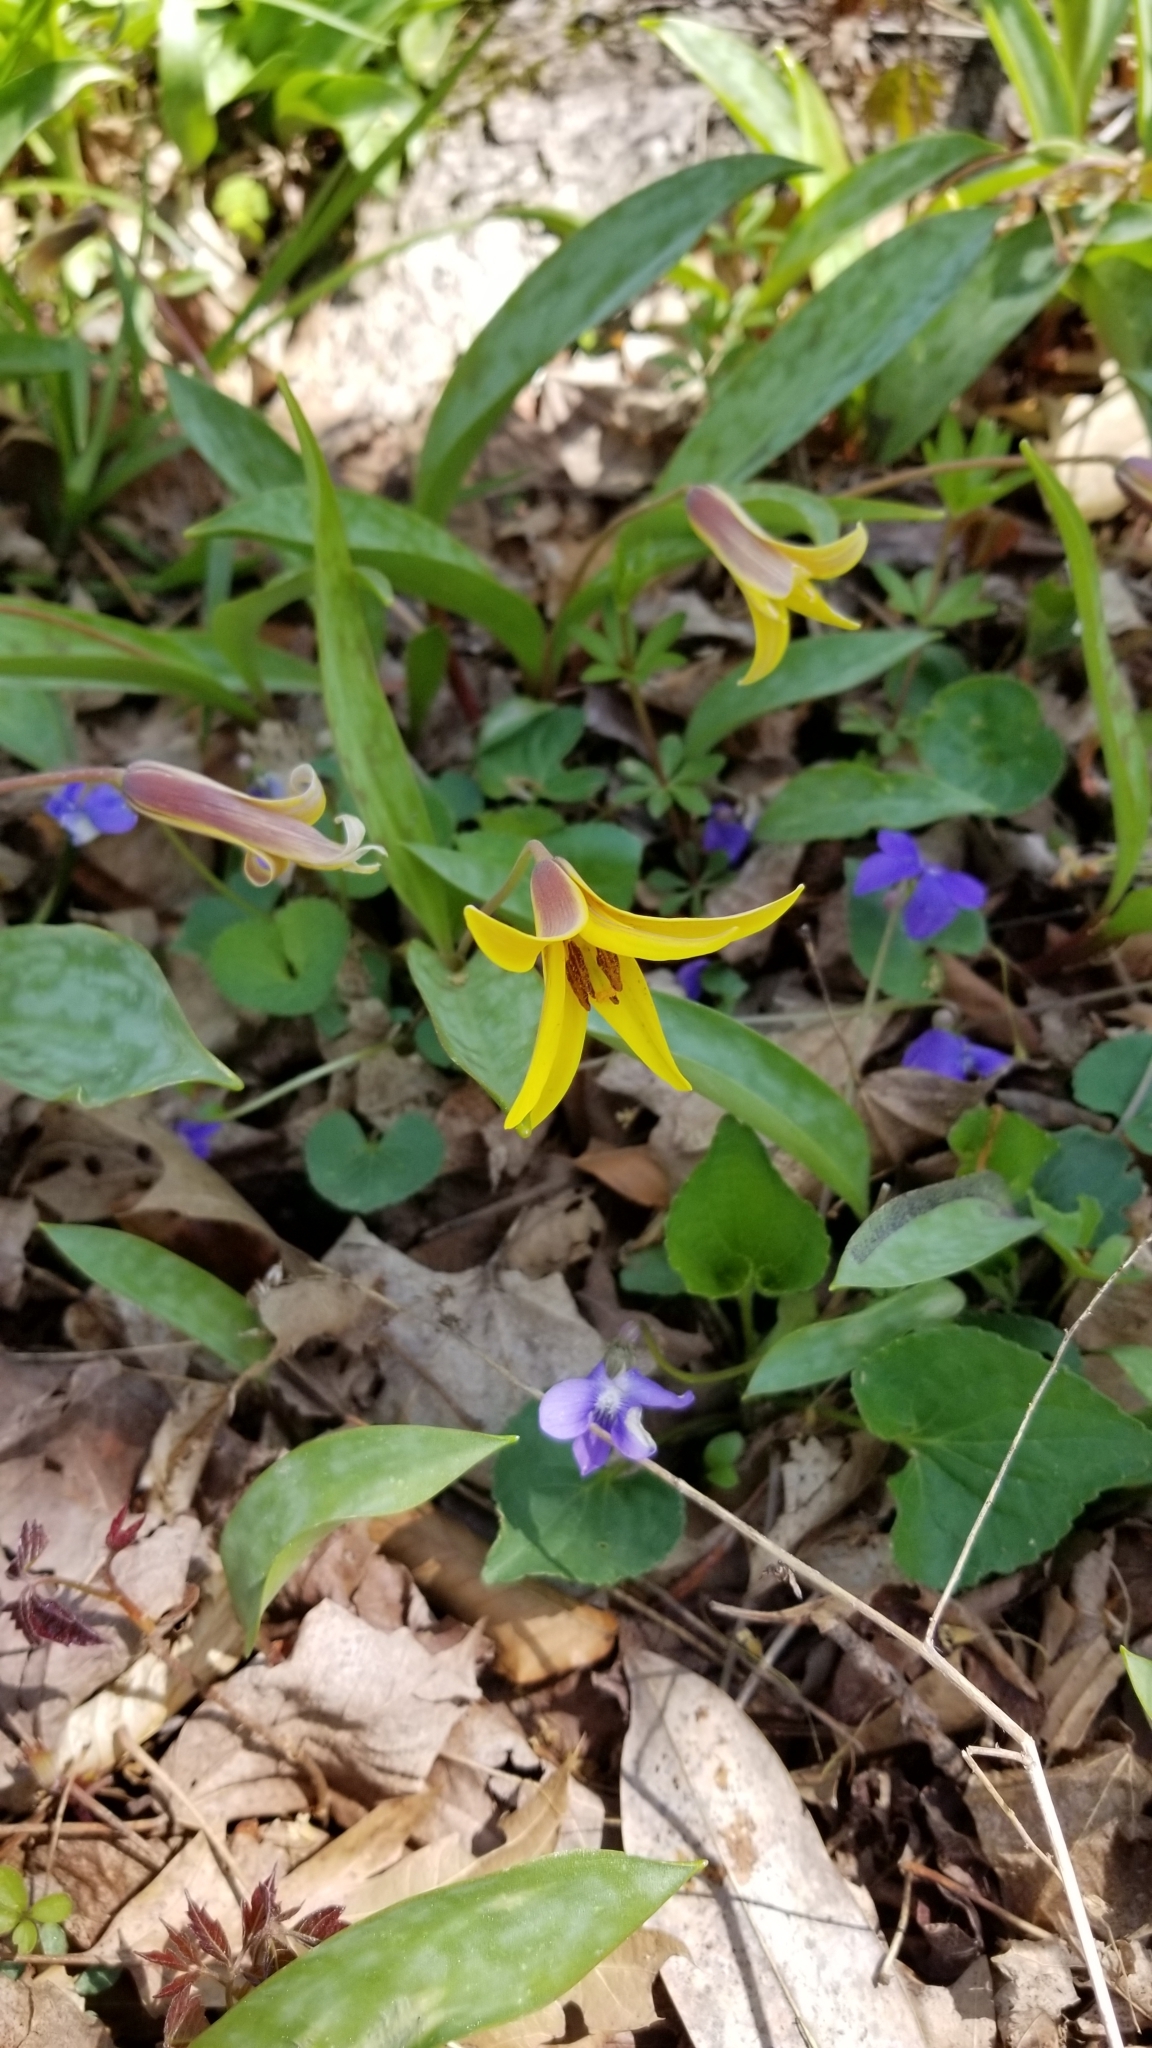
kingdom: Plantae
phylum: Tracheophyta
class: Liliopsida
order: Liliales
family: Liliaceae
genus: Erythronium
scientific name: Erythronium americanum
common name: Yellow adder's-tongue
